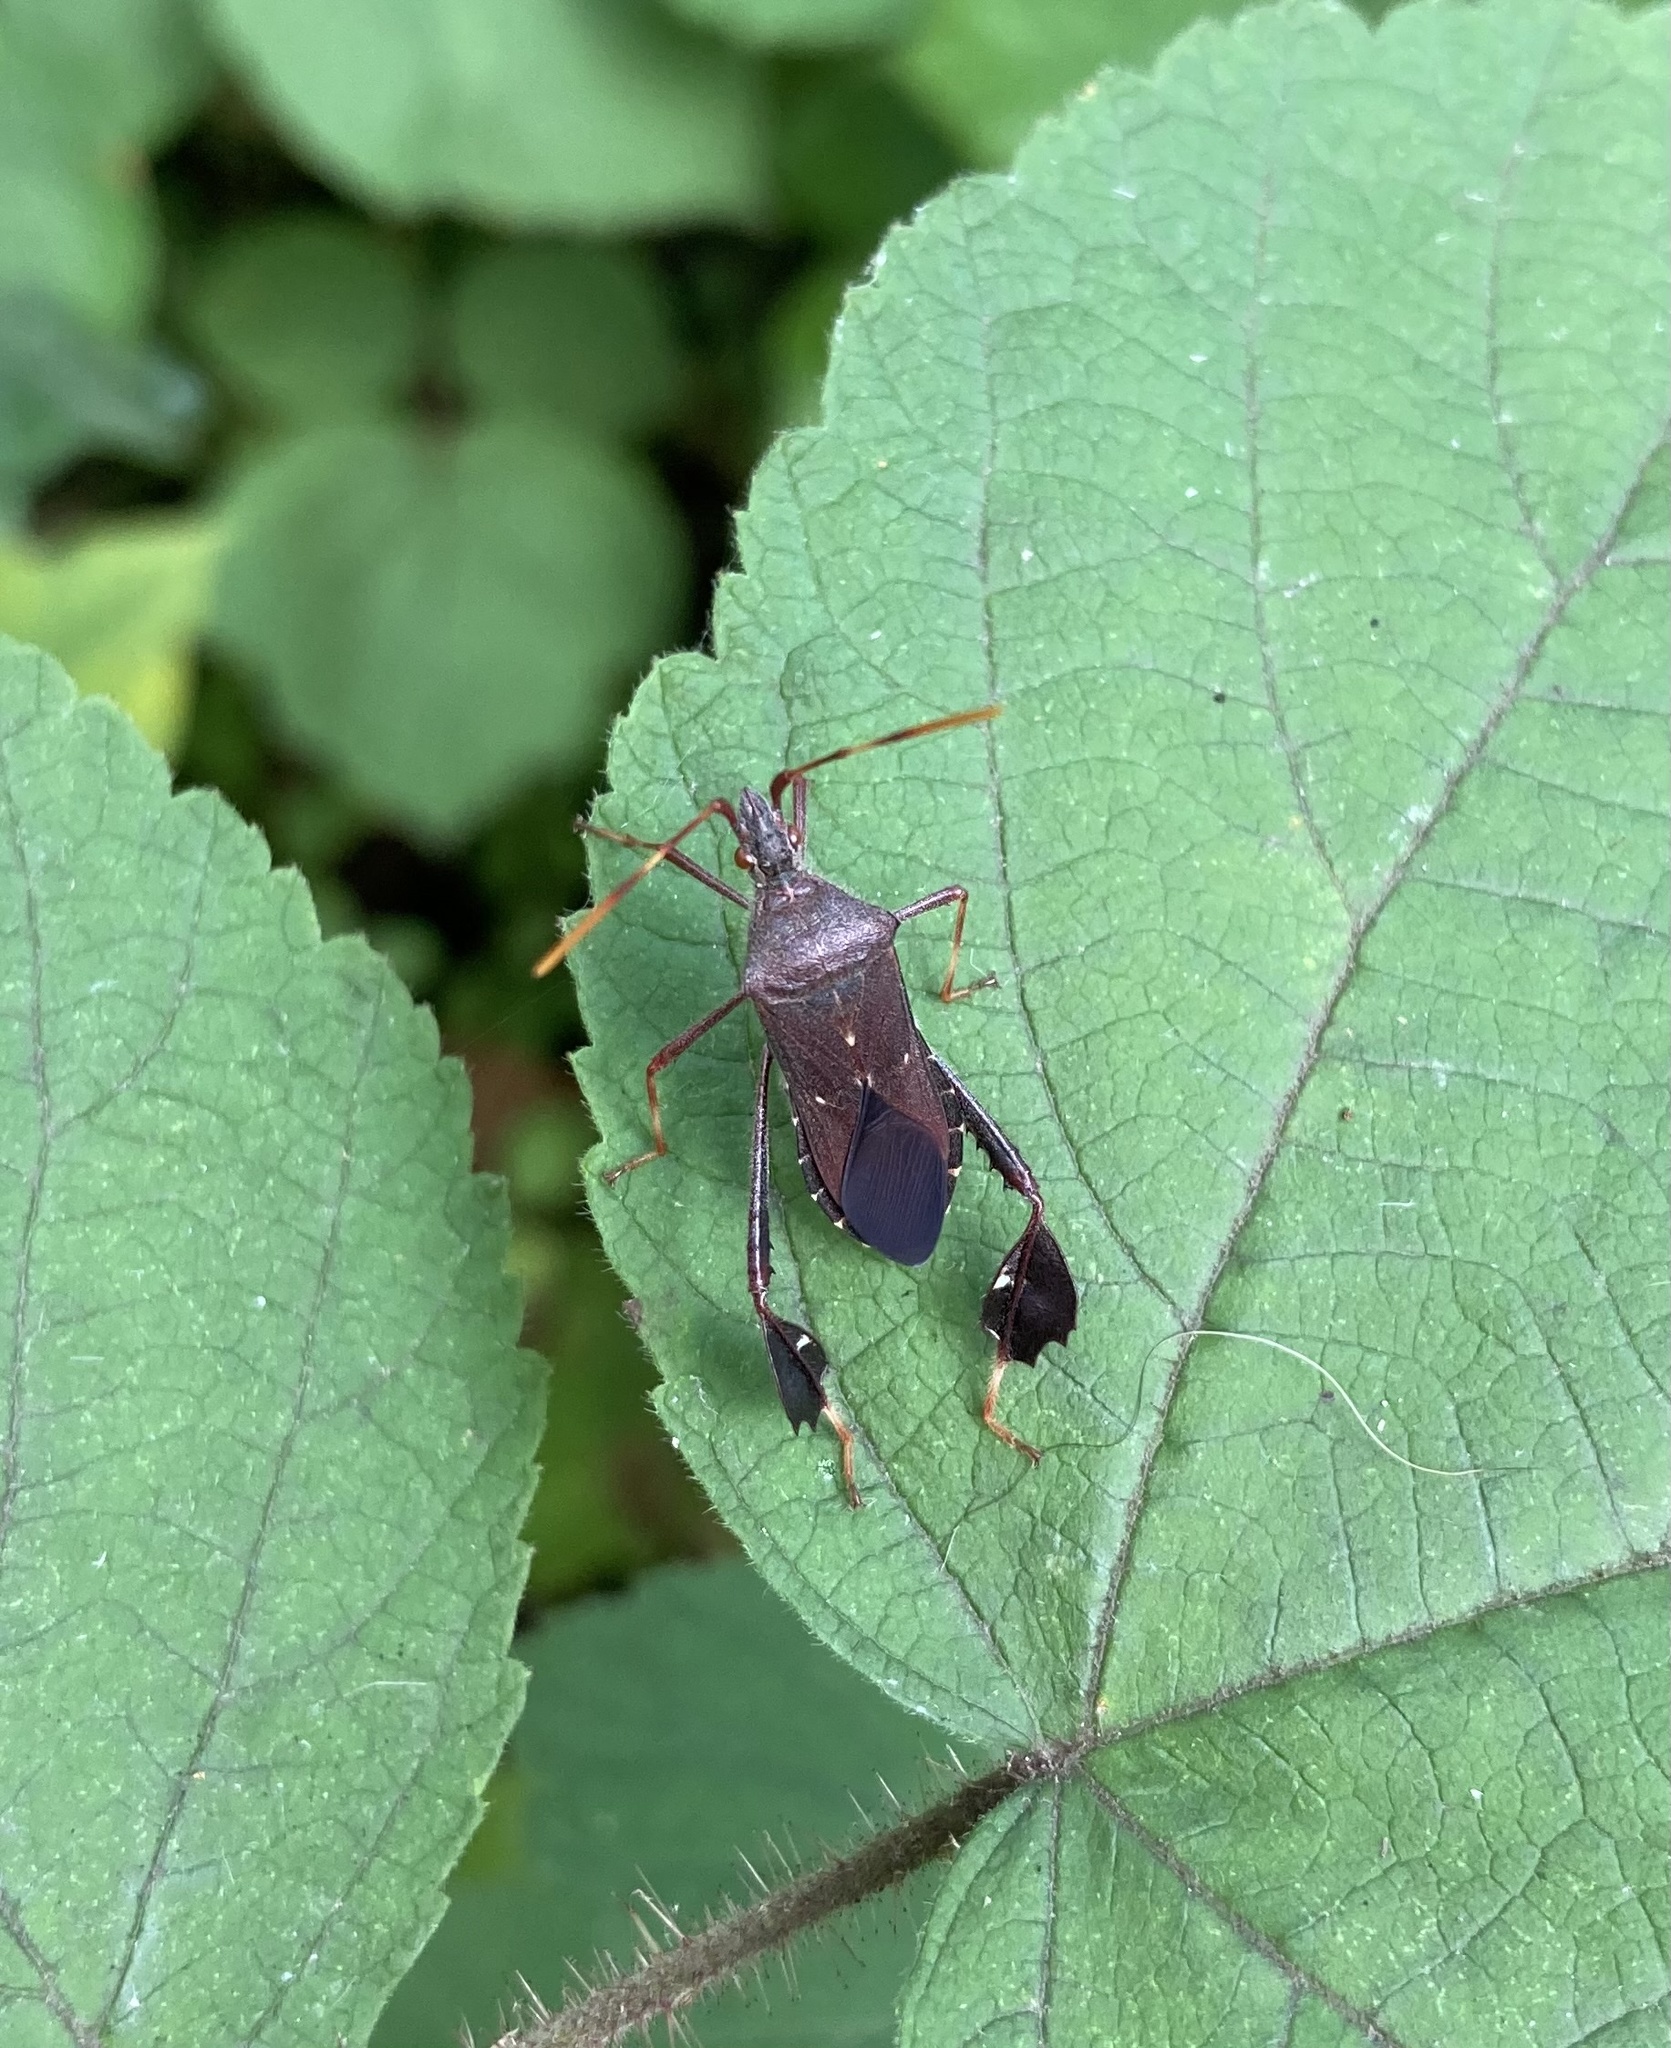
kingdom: Animalia
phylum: Arthropoda
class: Insecta
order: Hemiptera
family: Coreidae
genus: Leptoglossus
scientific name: Leptoglossus oppositus
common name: Northern leaf-footed bug
